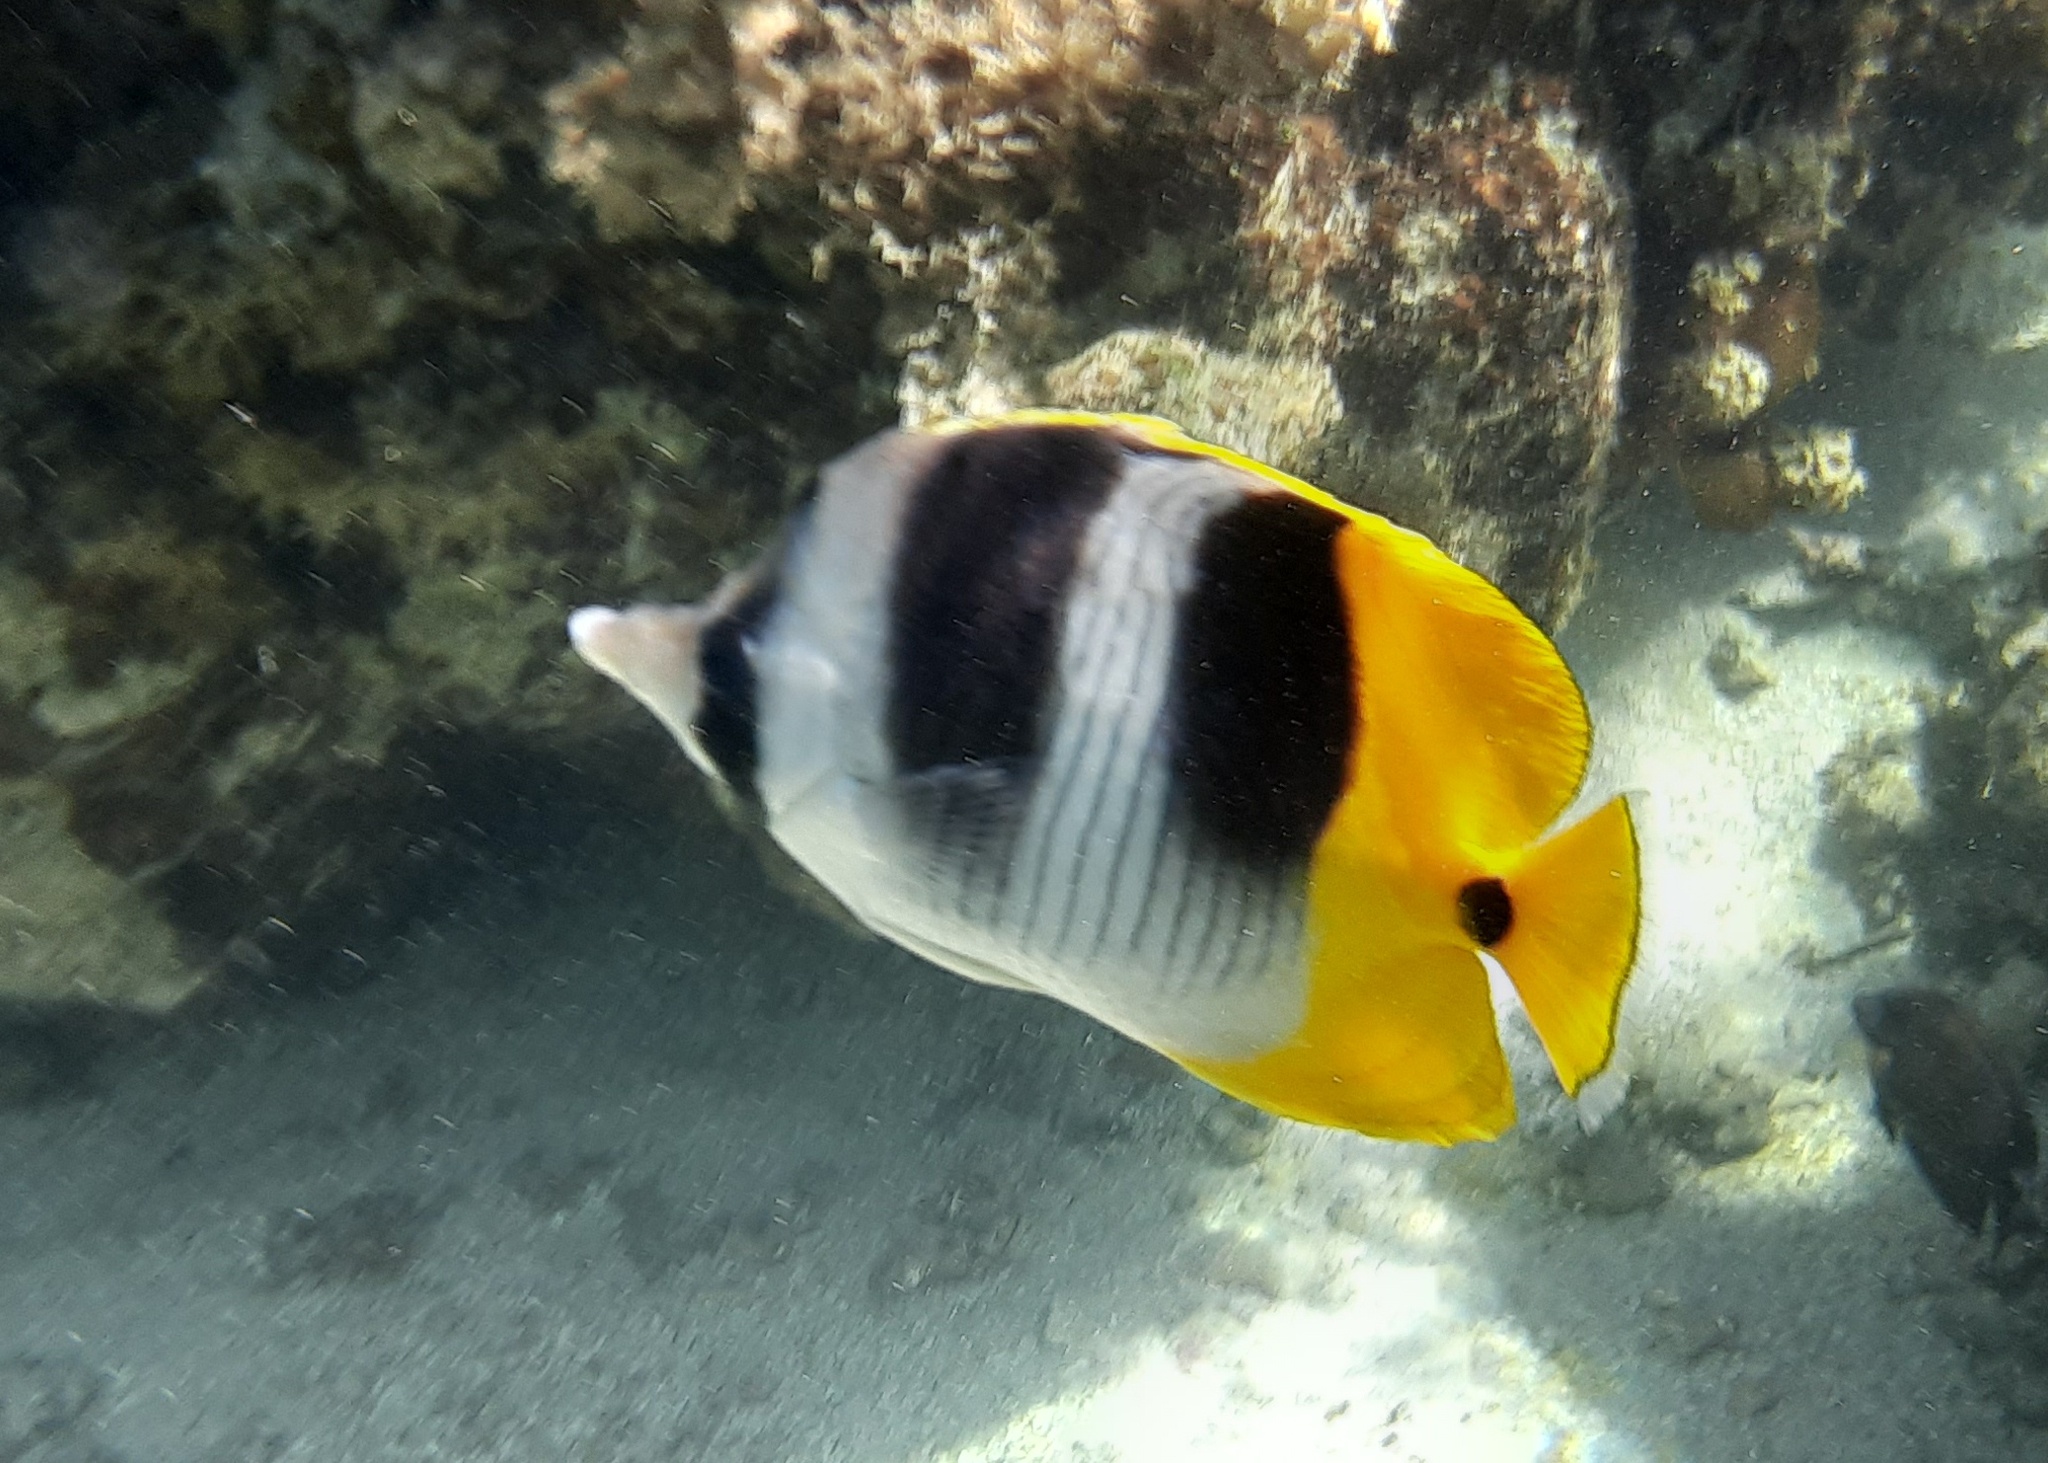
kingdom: Animalia
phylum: Chordata
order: Perciformes
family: Chaetodontidae
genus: Chaetodon
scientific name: Chaetodon ulietensis
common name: Pacific double-saddle butterflyfish
